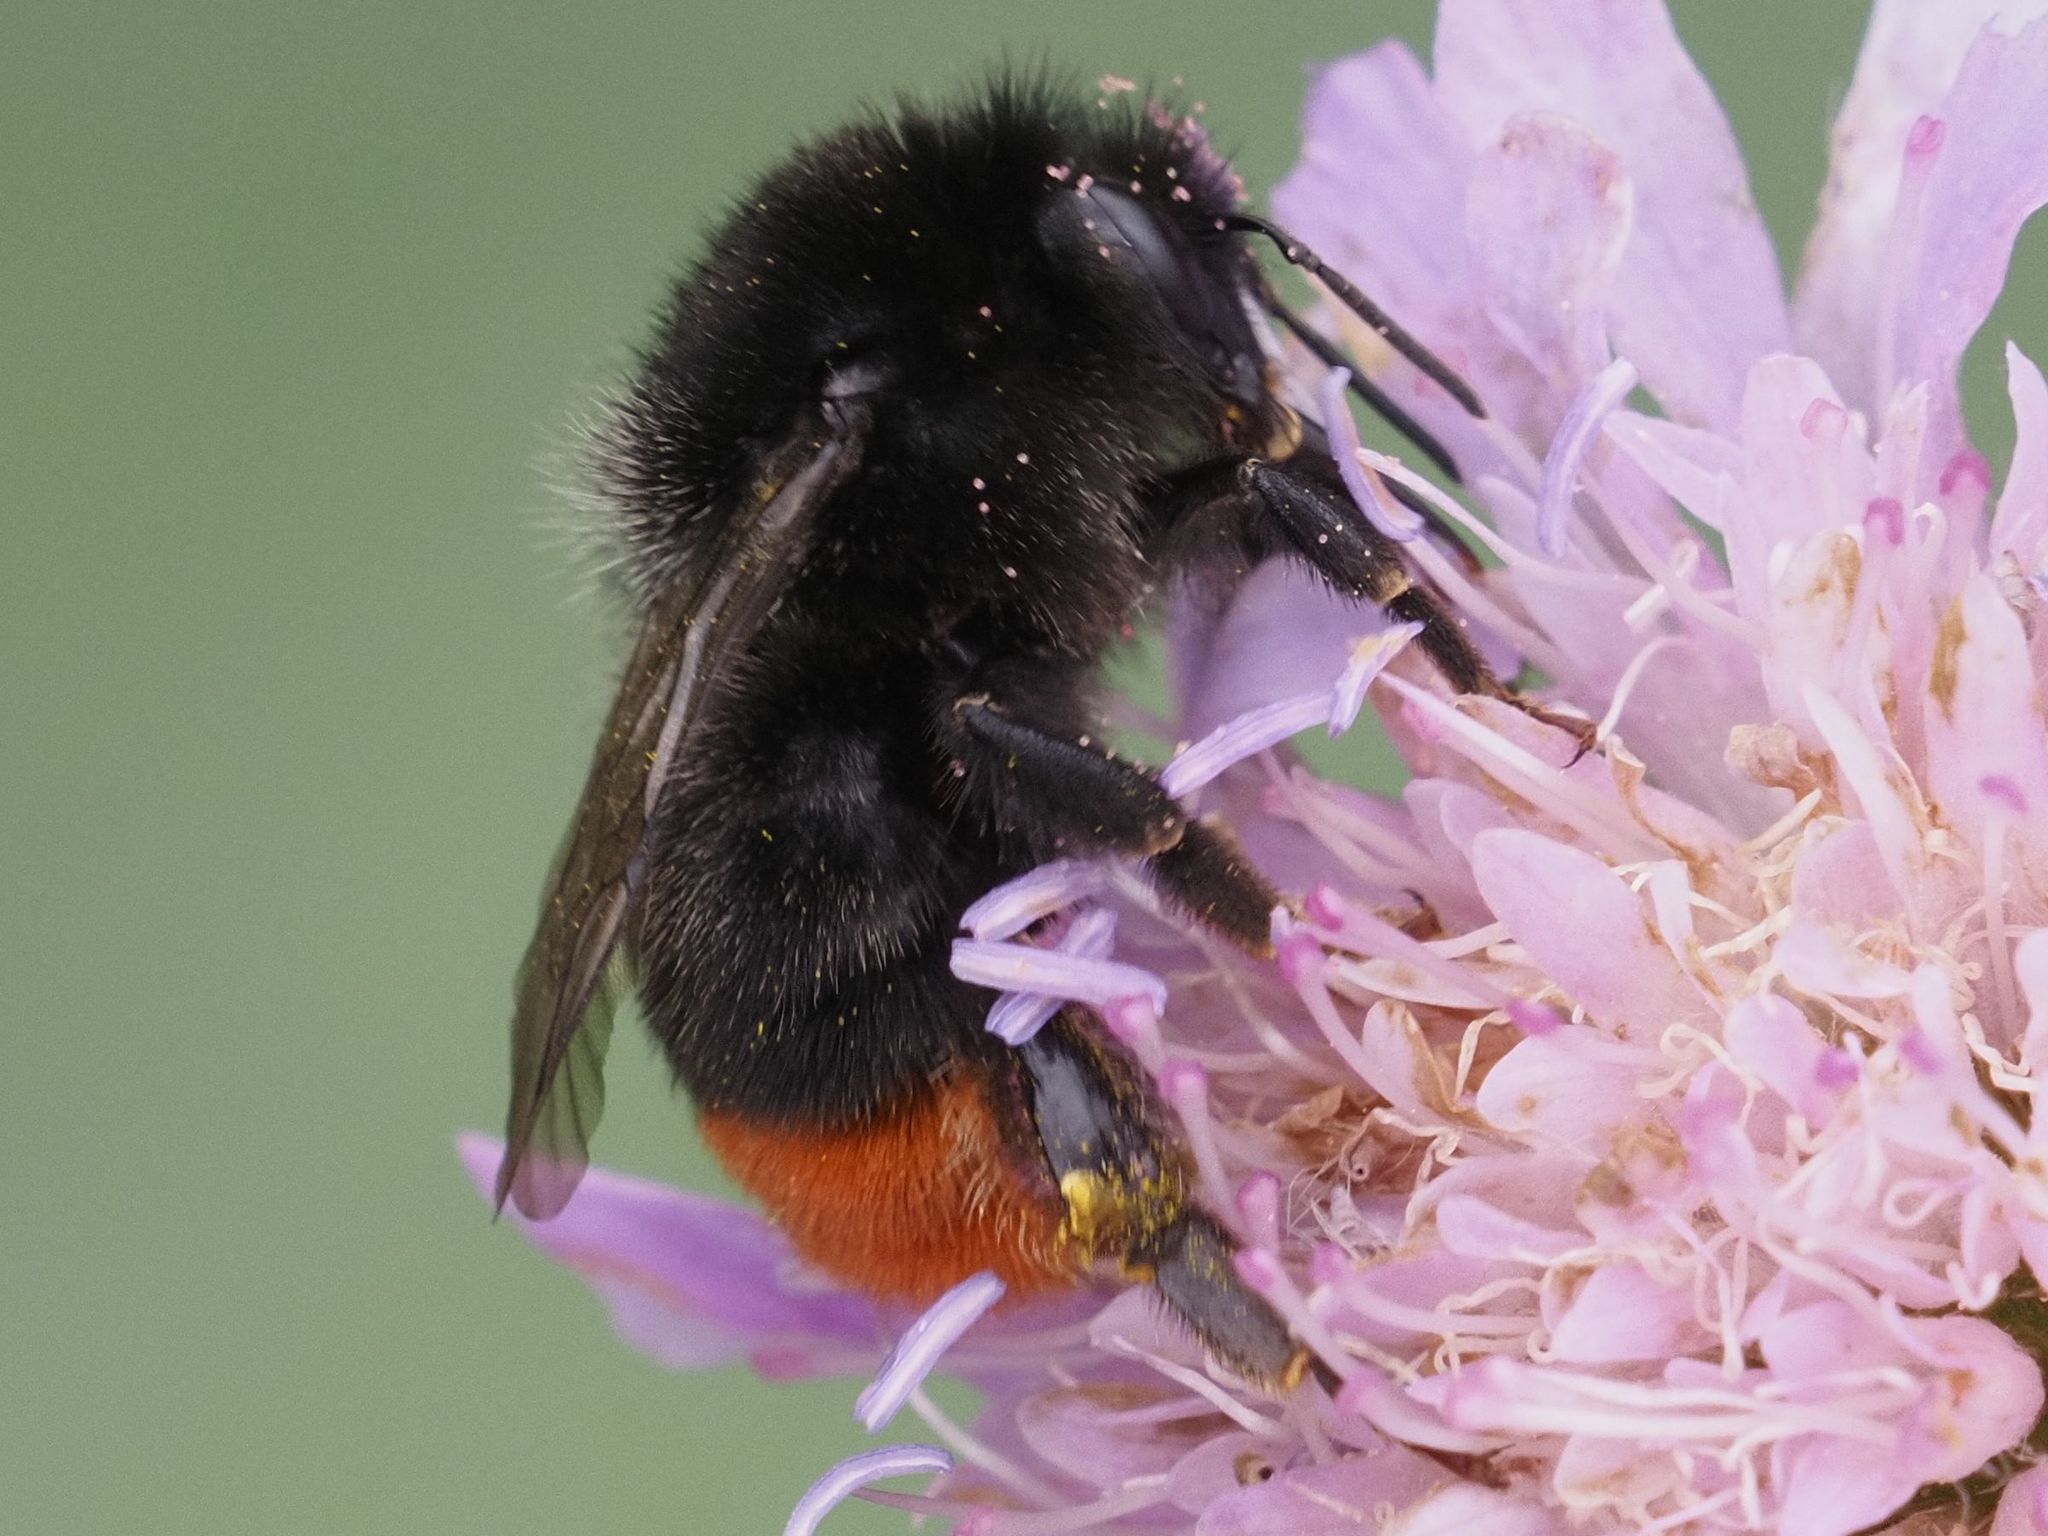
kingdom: Animalia
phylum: Arthropoda
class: Insecta
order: Hymenoptera
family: Apidae
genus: Bombus
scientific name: Bombus lapidarius
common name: Large red-tailed humble-bee
